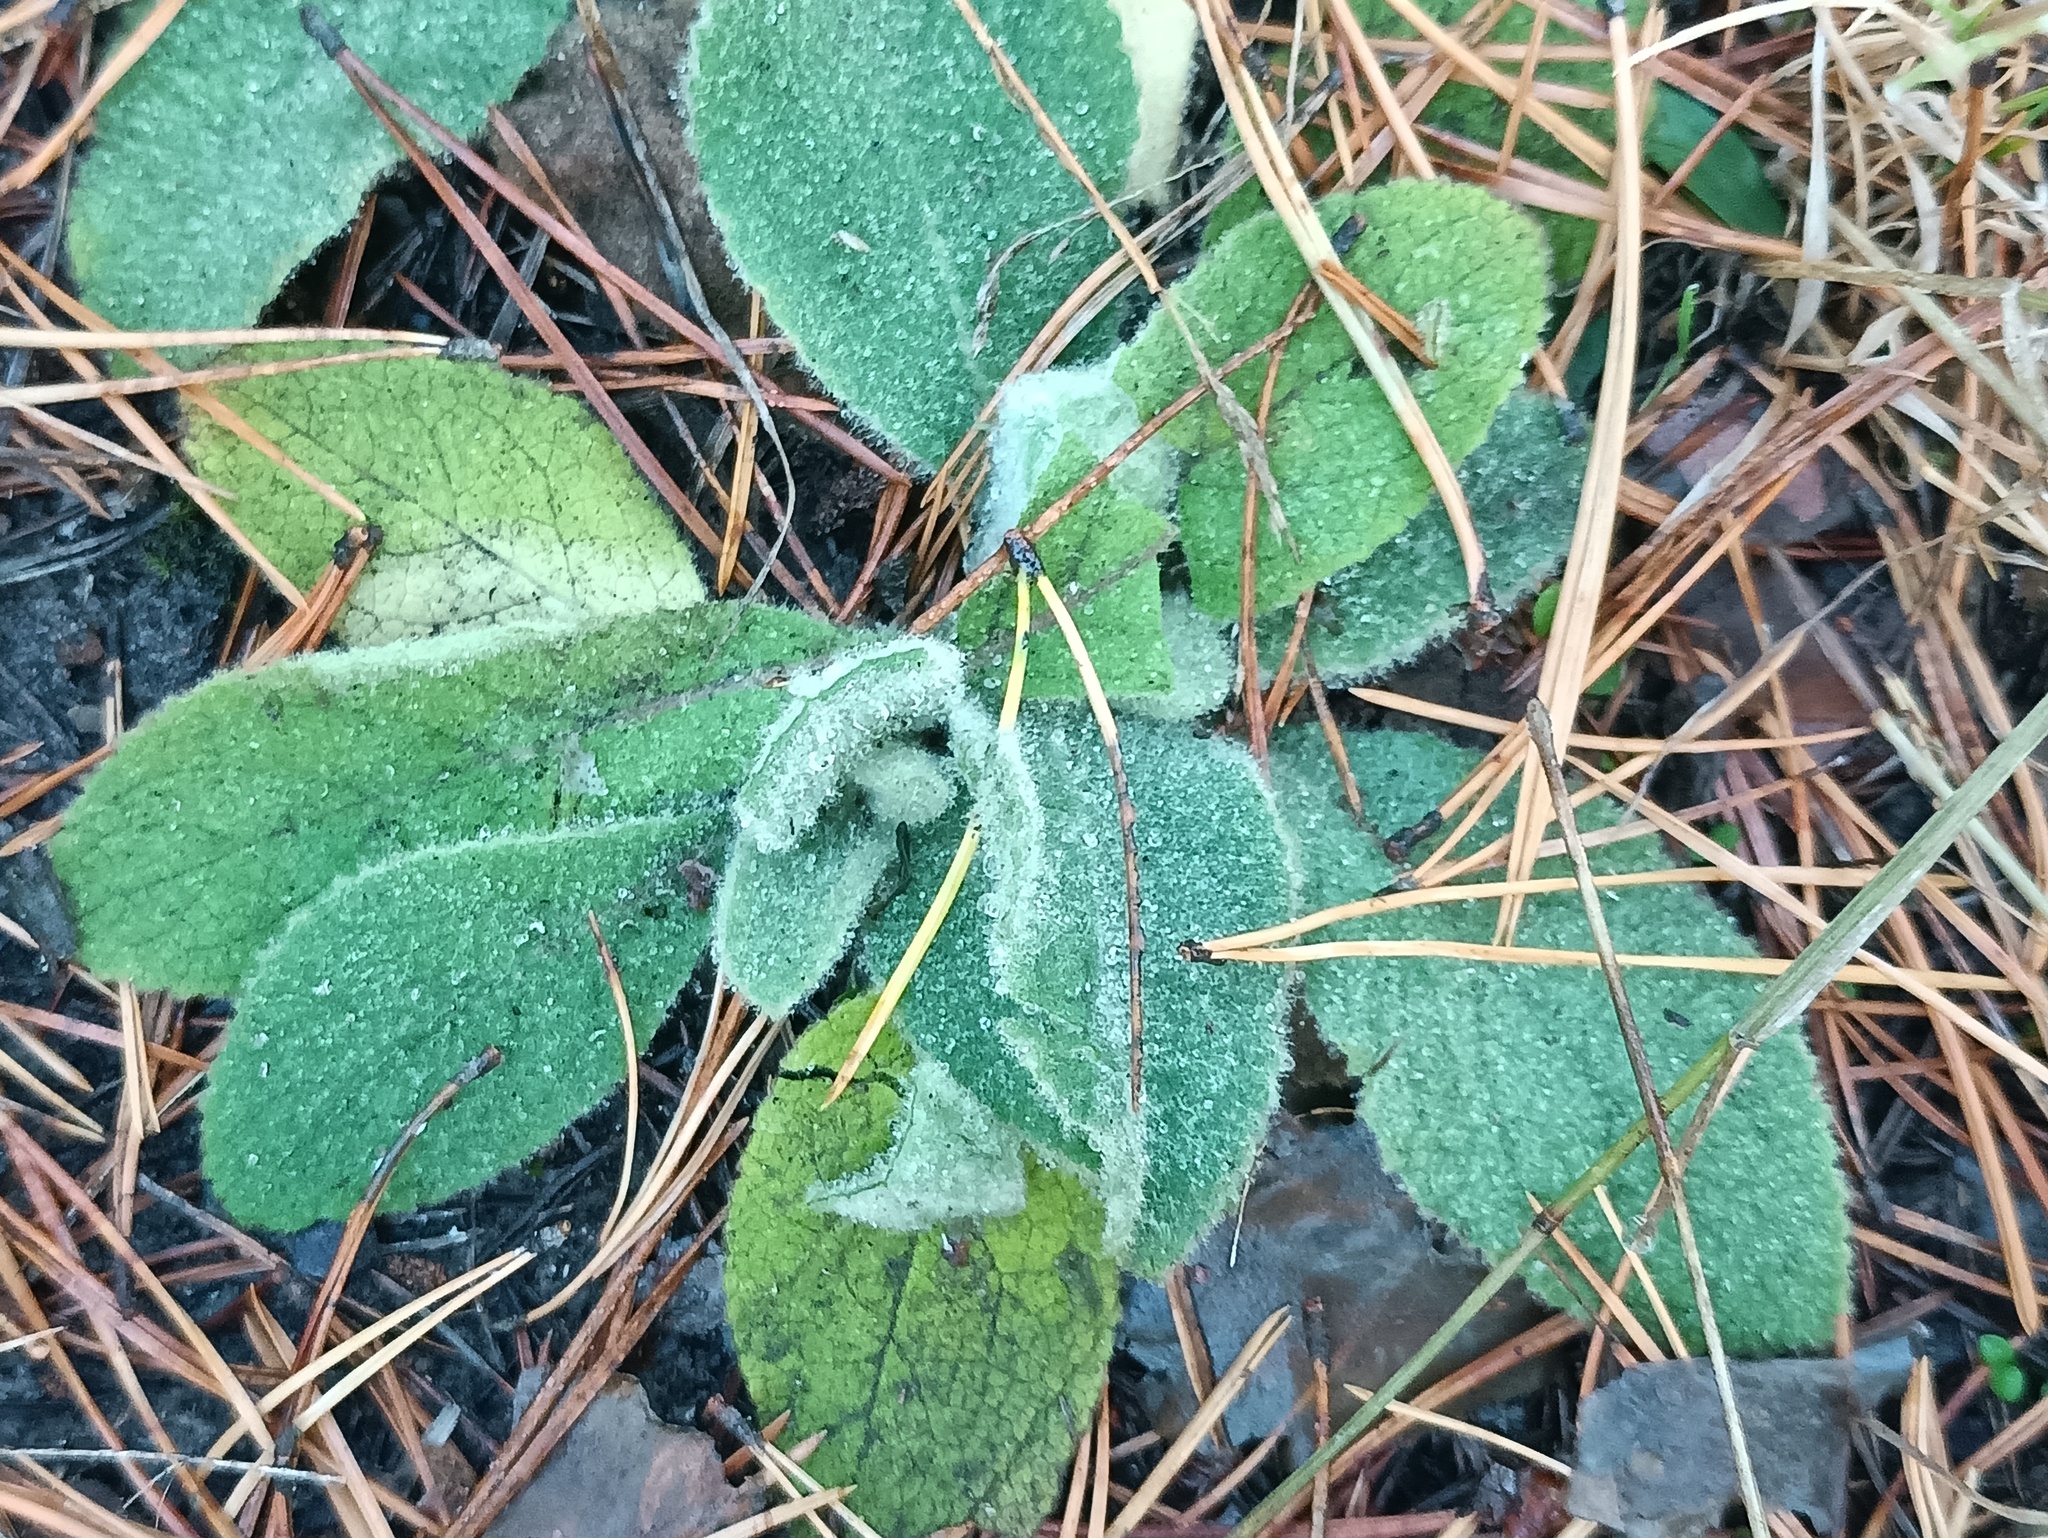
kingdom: Plantae
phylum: Tracheophyta
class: Magnoliopsida
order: Lamiales
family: Scrophulariaceae
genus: Verbascum
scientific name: Verbascum thapsus
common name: Common mullein
